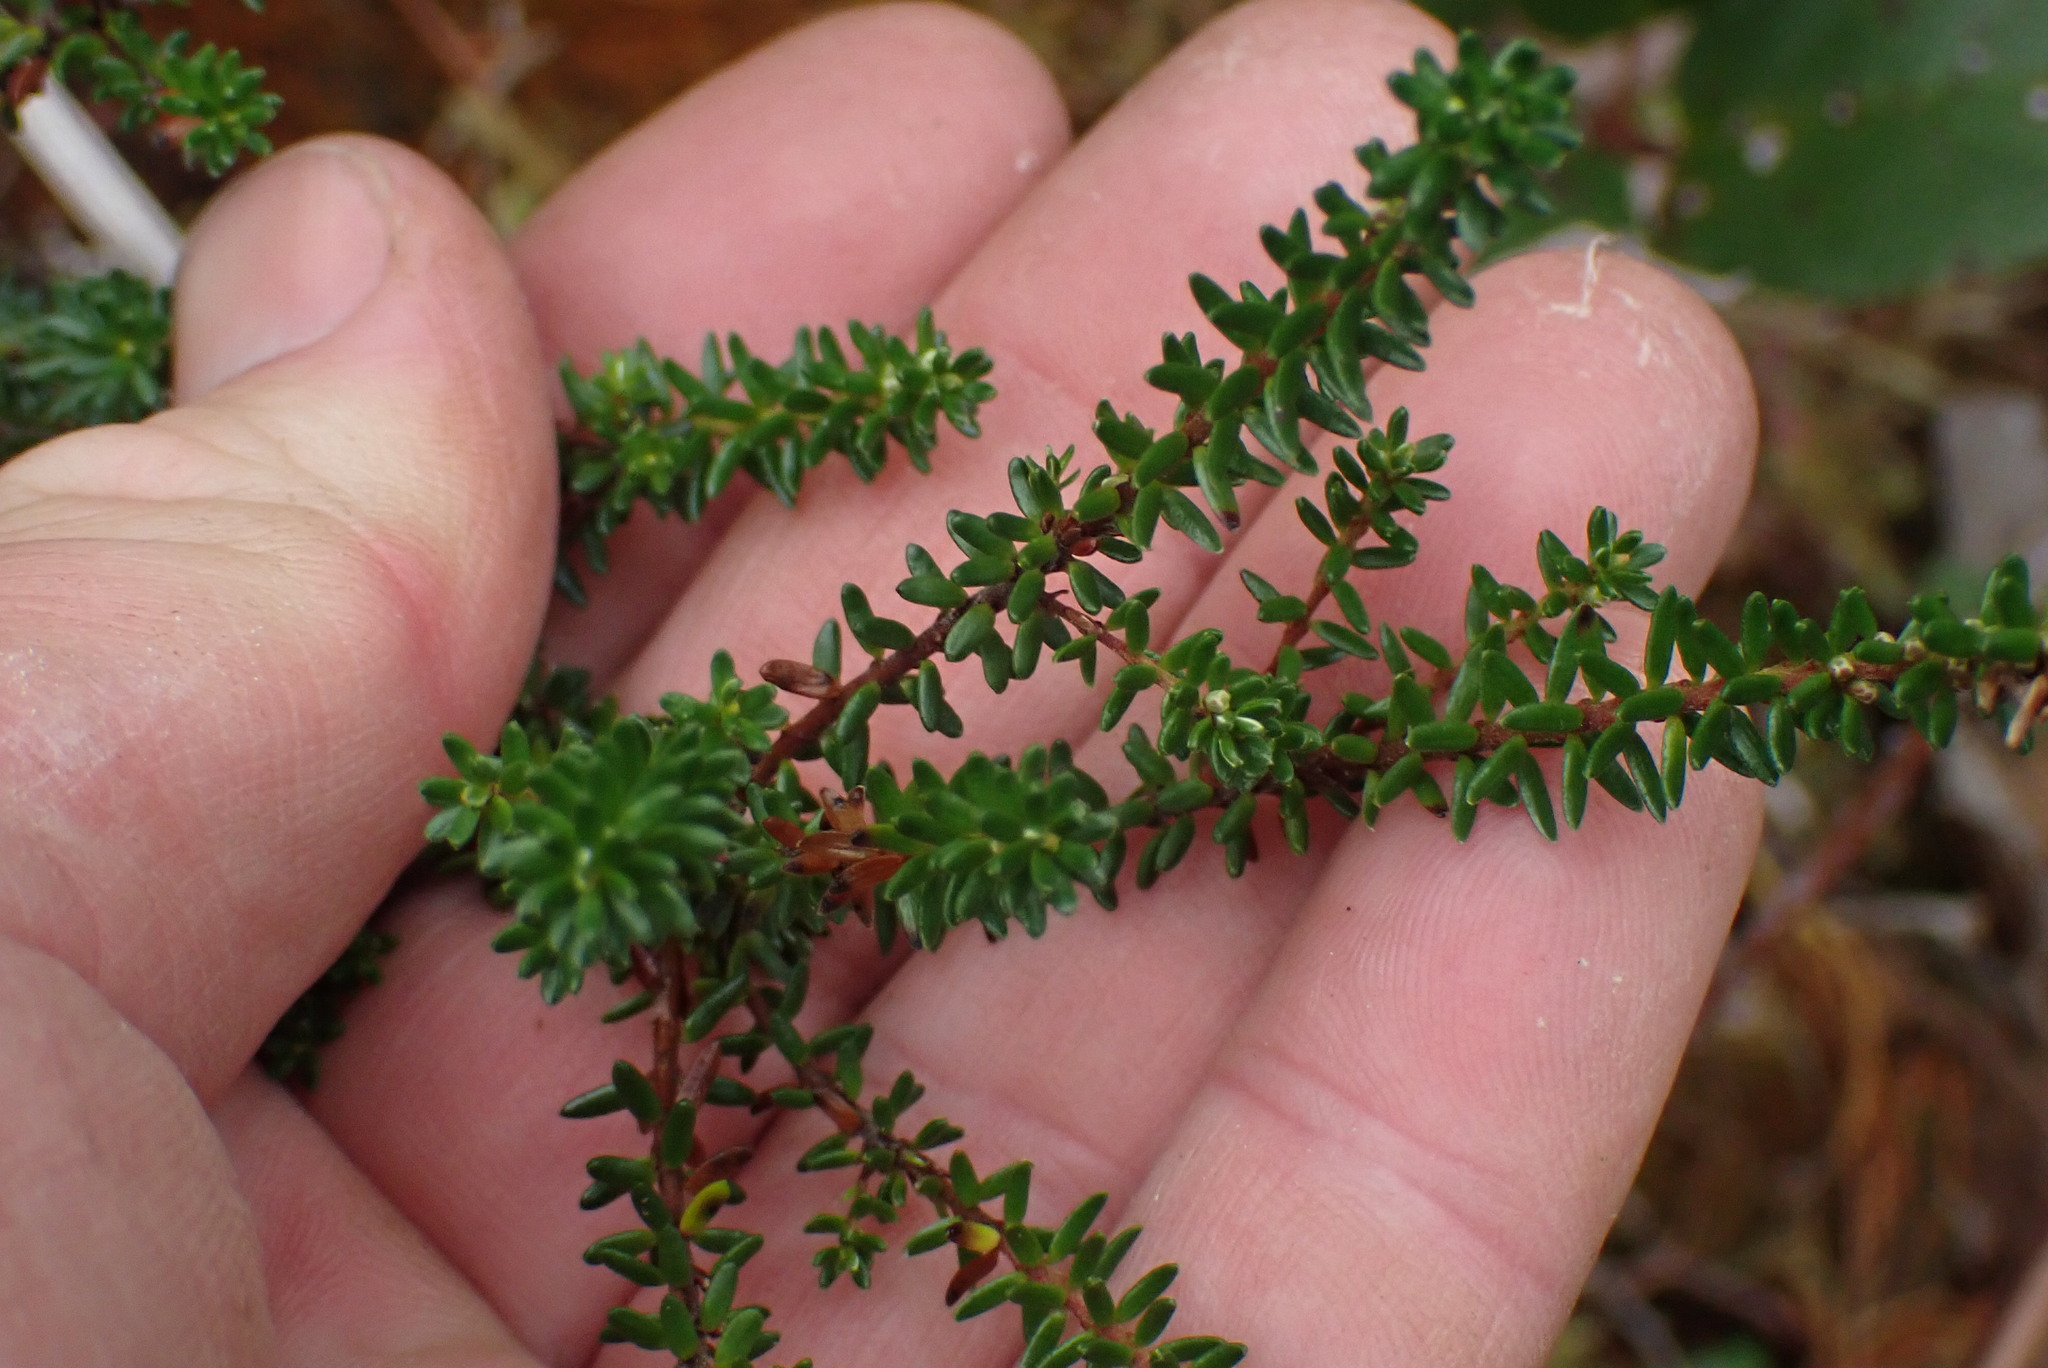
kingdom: Plantae
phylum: Tracheophyta
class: Magnoliopsida
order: Ericales
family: Ericaceae
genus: Empetrum
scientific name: Empetrum nigrum
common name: Black crowberry
